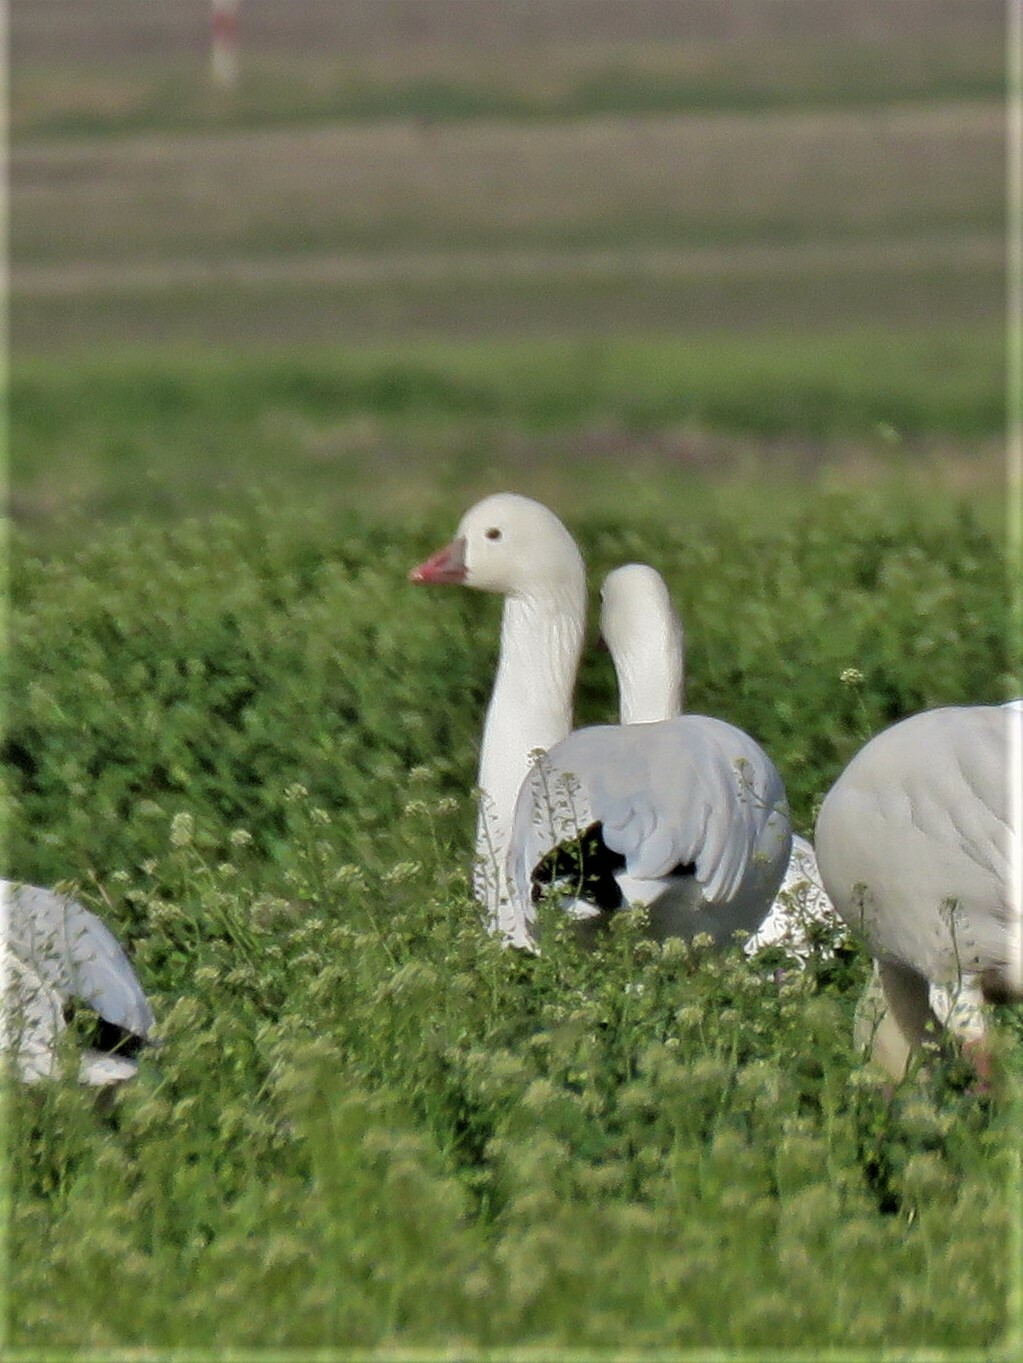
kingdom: Animalia
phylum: Chordata
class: Aves
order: Anseriformes
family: Anatidae
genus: Anser
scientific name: Anser rossii
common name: Ross's goose
